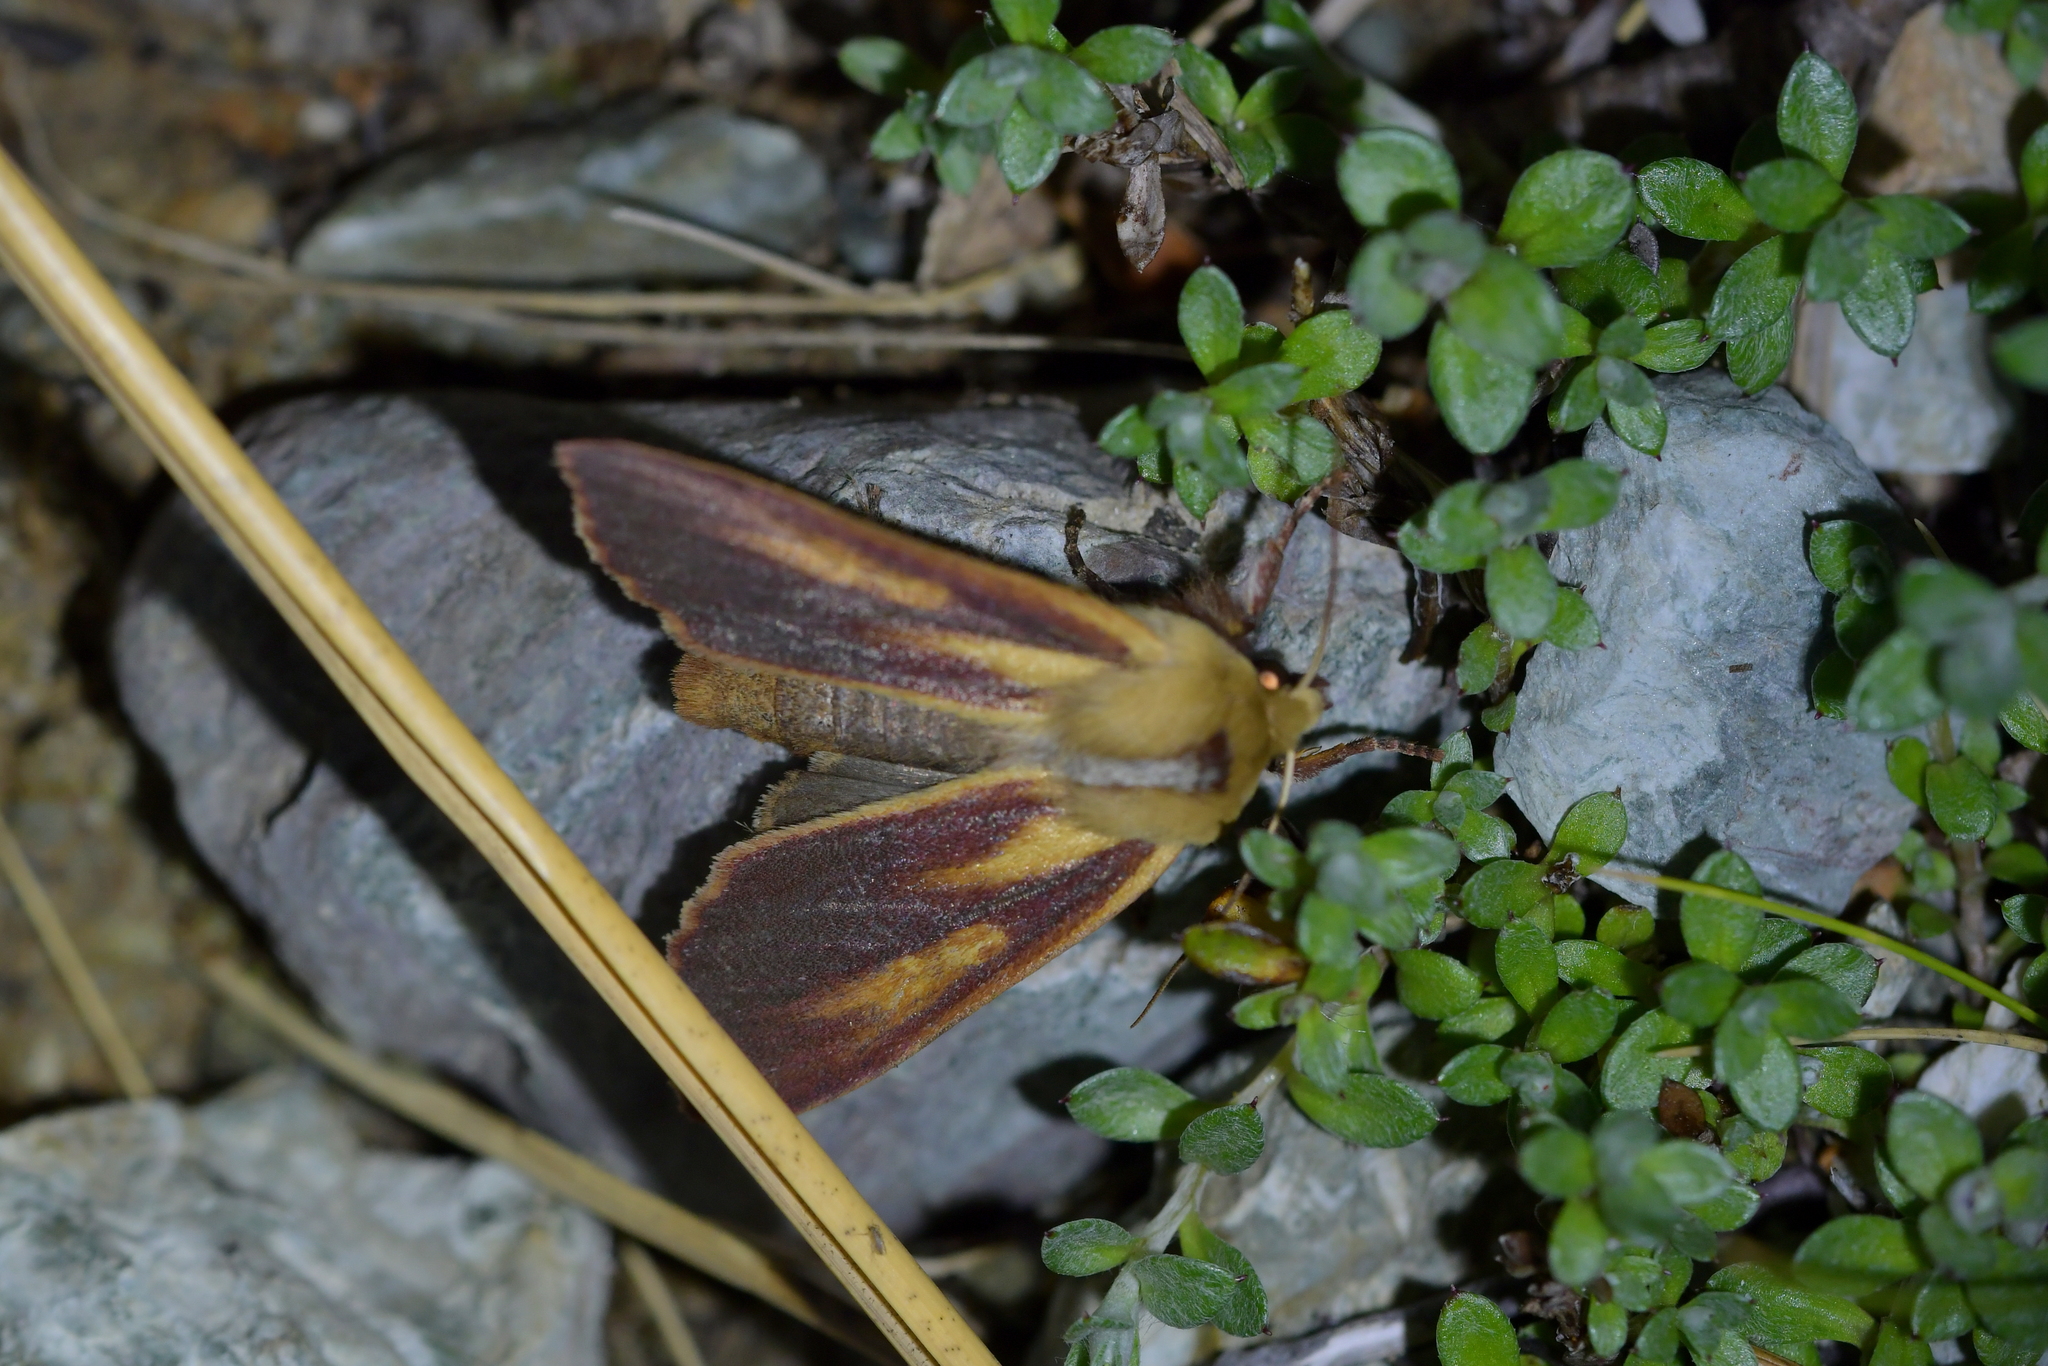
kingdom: Animalia
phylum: Arthropoda
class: Insecta
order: Lepidoptera
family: Noctuidae
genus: Ichneutica
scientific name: Ichneutica
